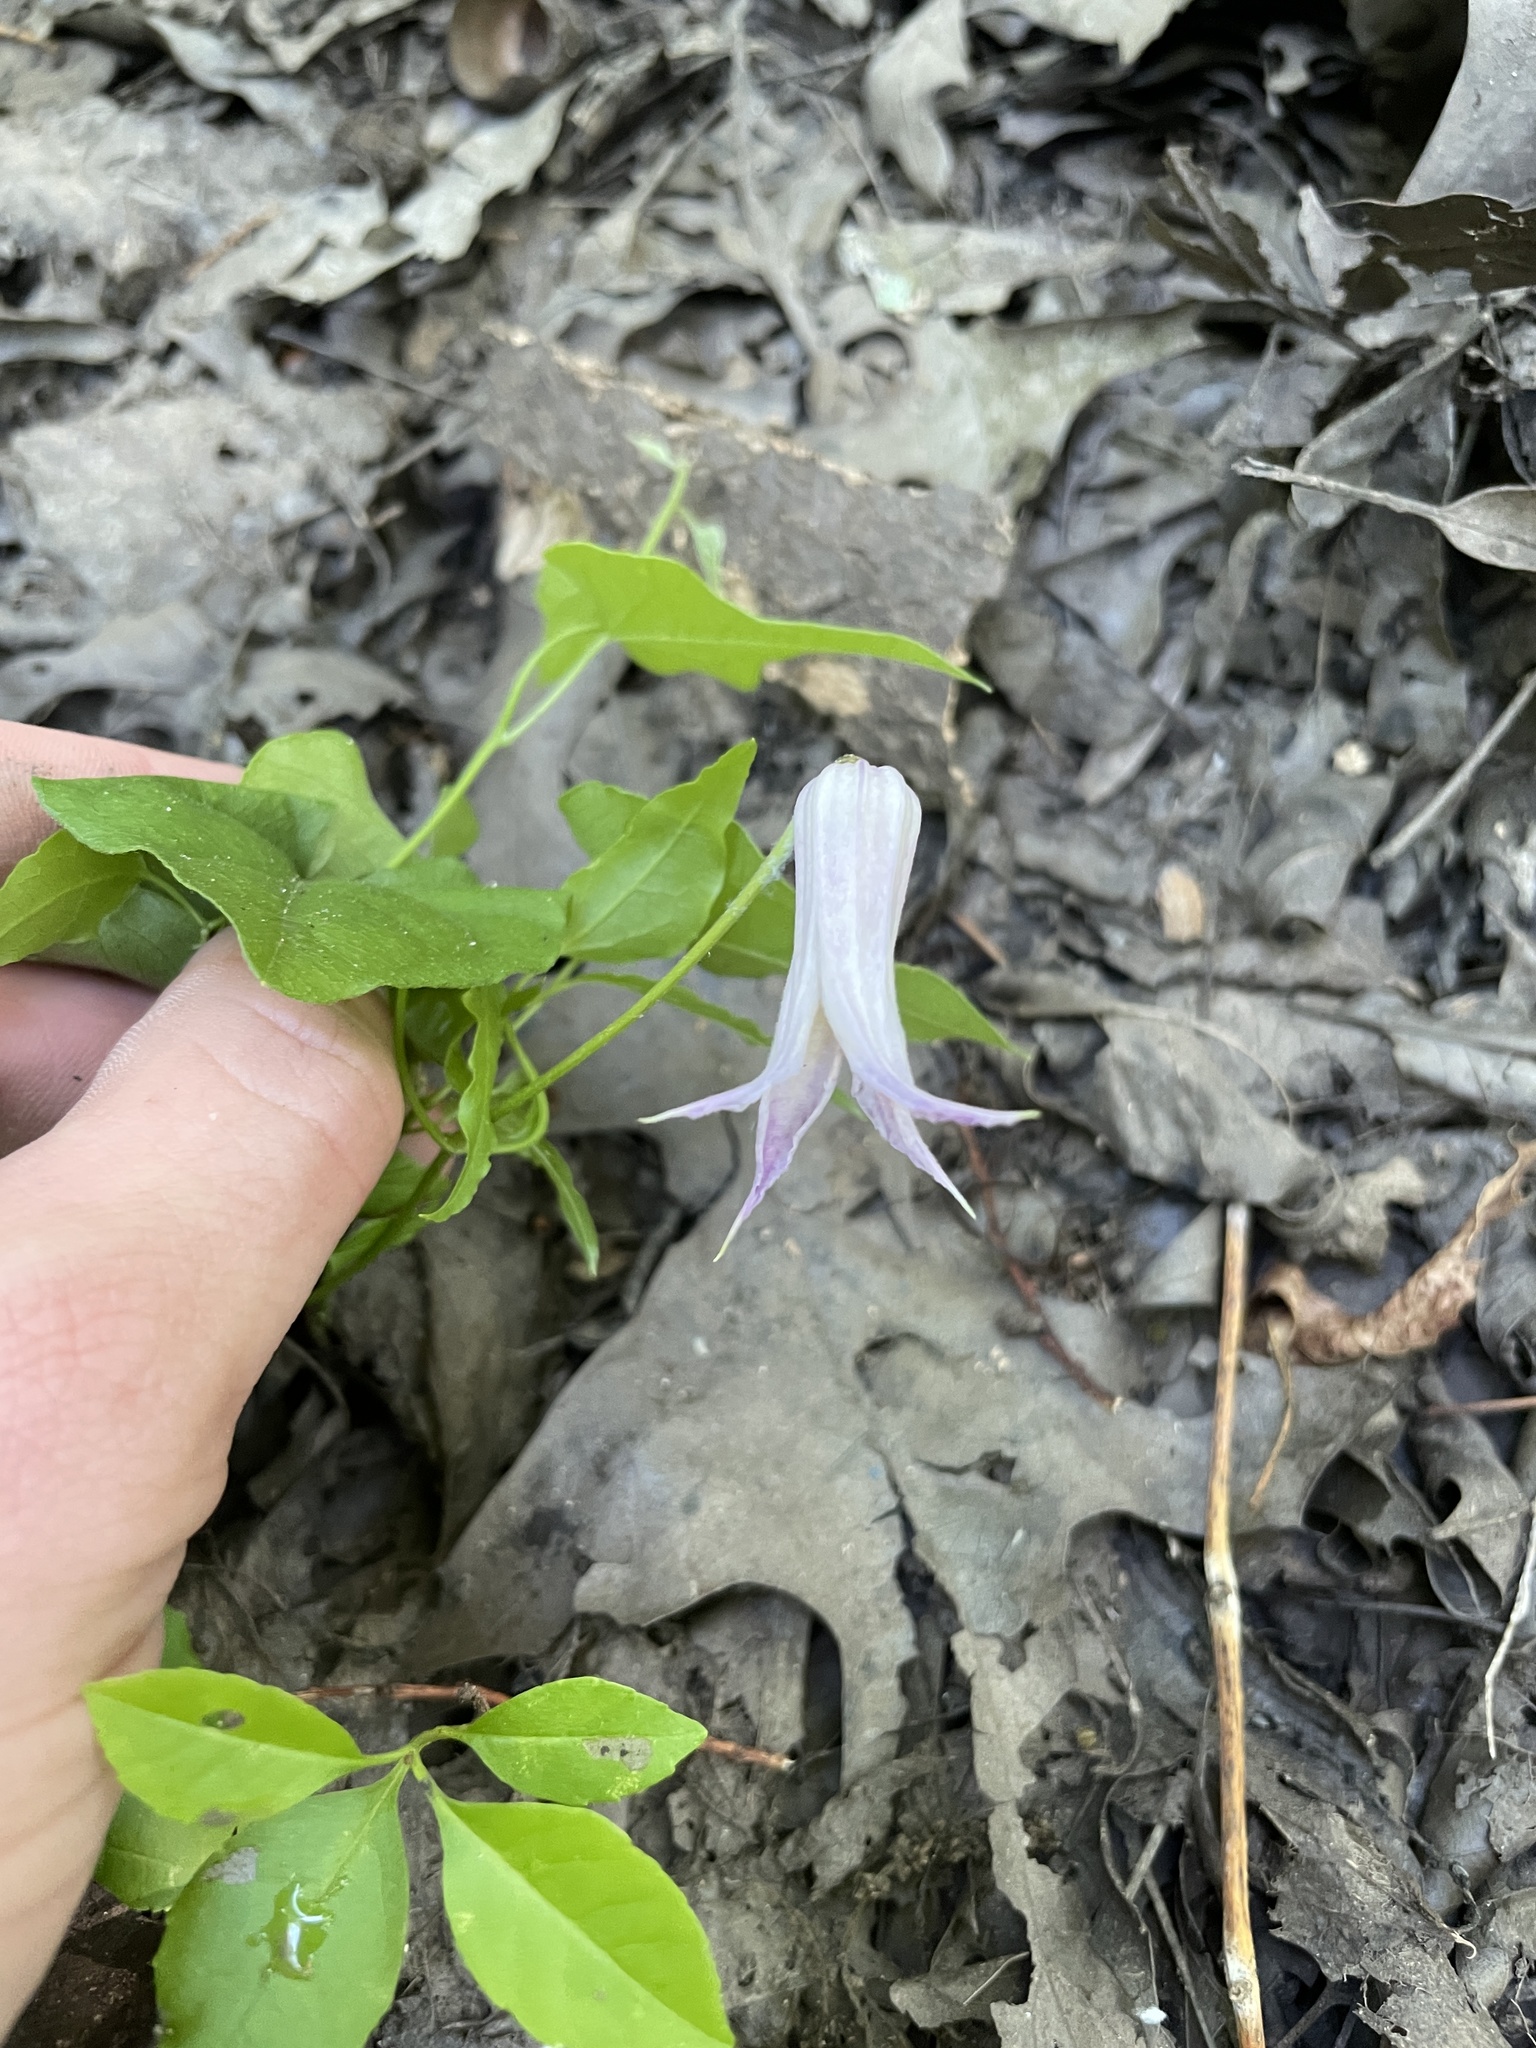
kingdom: Plantae
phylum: Tracheophyta
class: Magnoliopsida
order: Ranunculales
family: Ranunculaceae
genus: Clematis
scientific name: Clematis crispa
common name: Curly clematis
